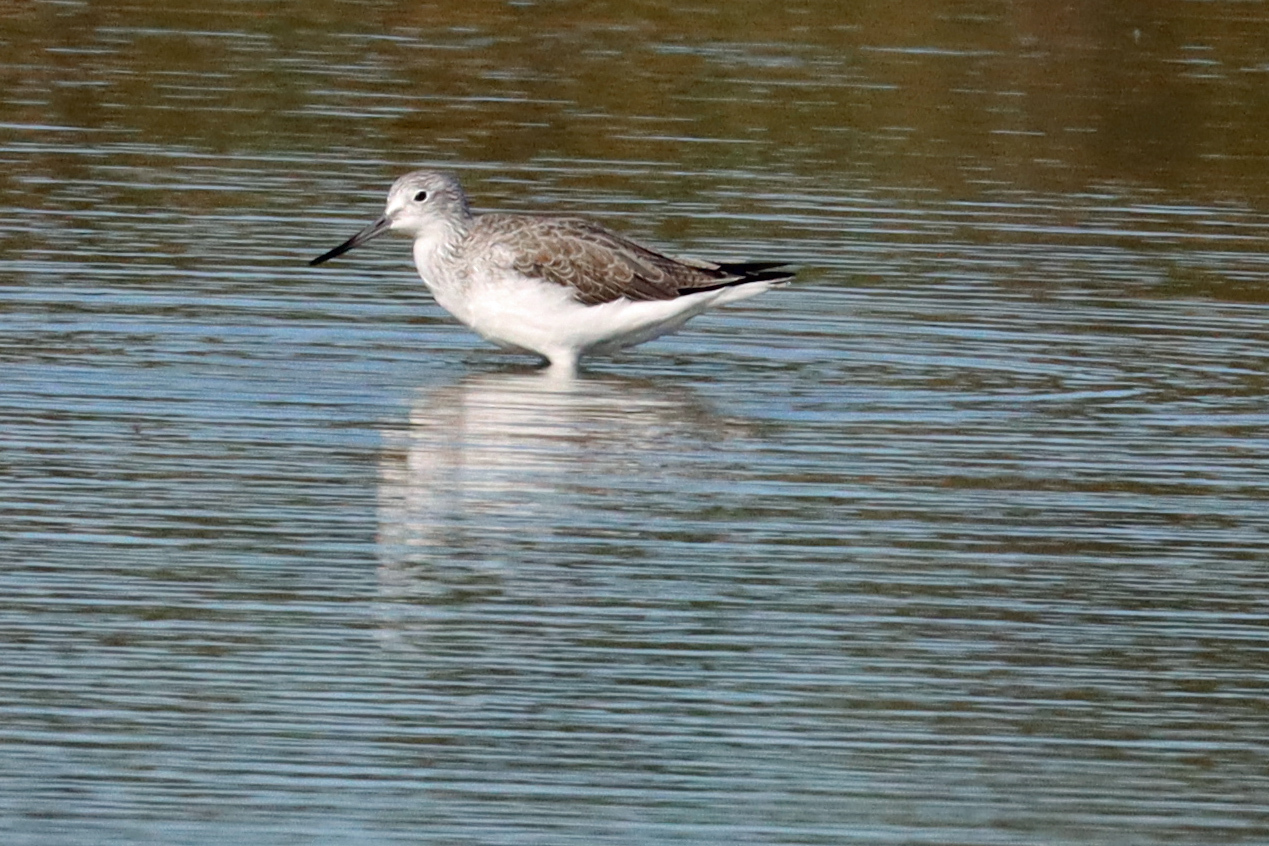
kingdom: Animalia
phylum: Chordata
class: Aves
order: Charadriiformes
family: Scolopacidae
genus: Tringa
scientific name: Tringa nebularia
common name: Common greenshank
